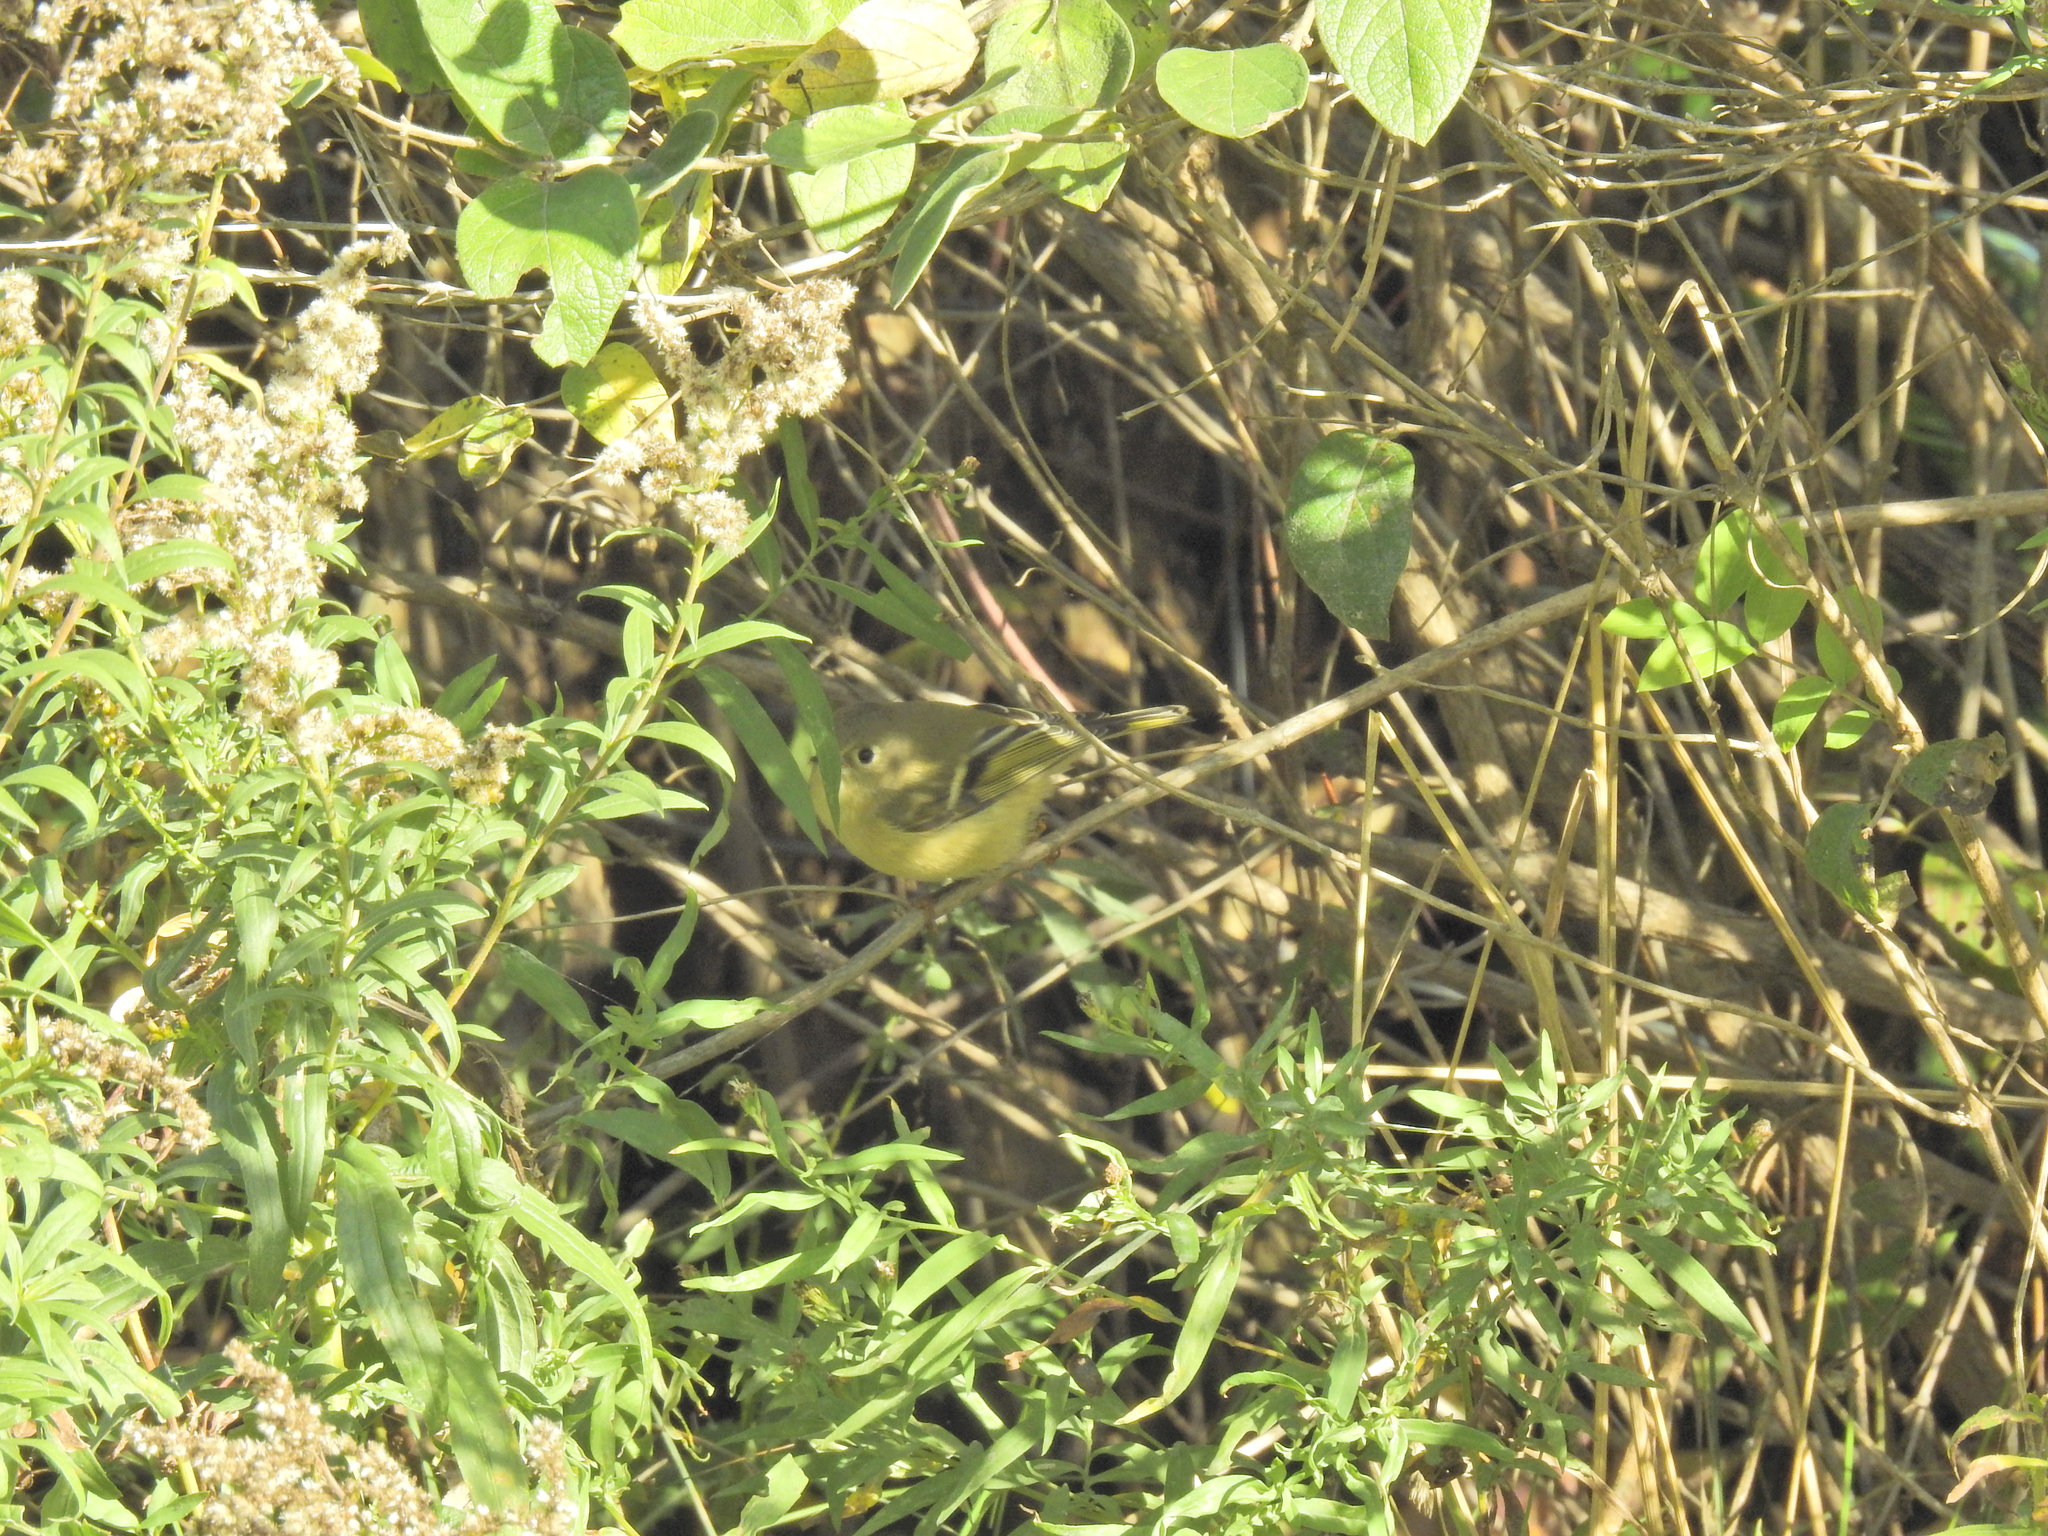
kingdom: Animalia
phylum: Chordata
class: Aves
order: Passeriformes
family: Regulidae
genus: Regulus
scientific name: Regulus calendula
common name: Ruby-crowned kinglet
